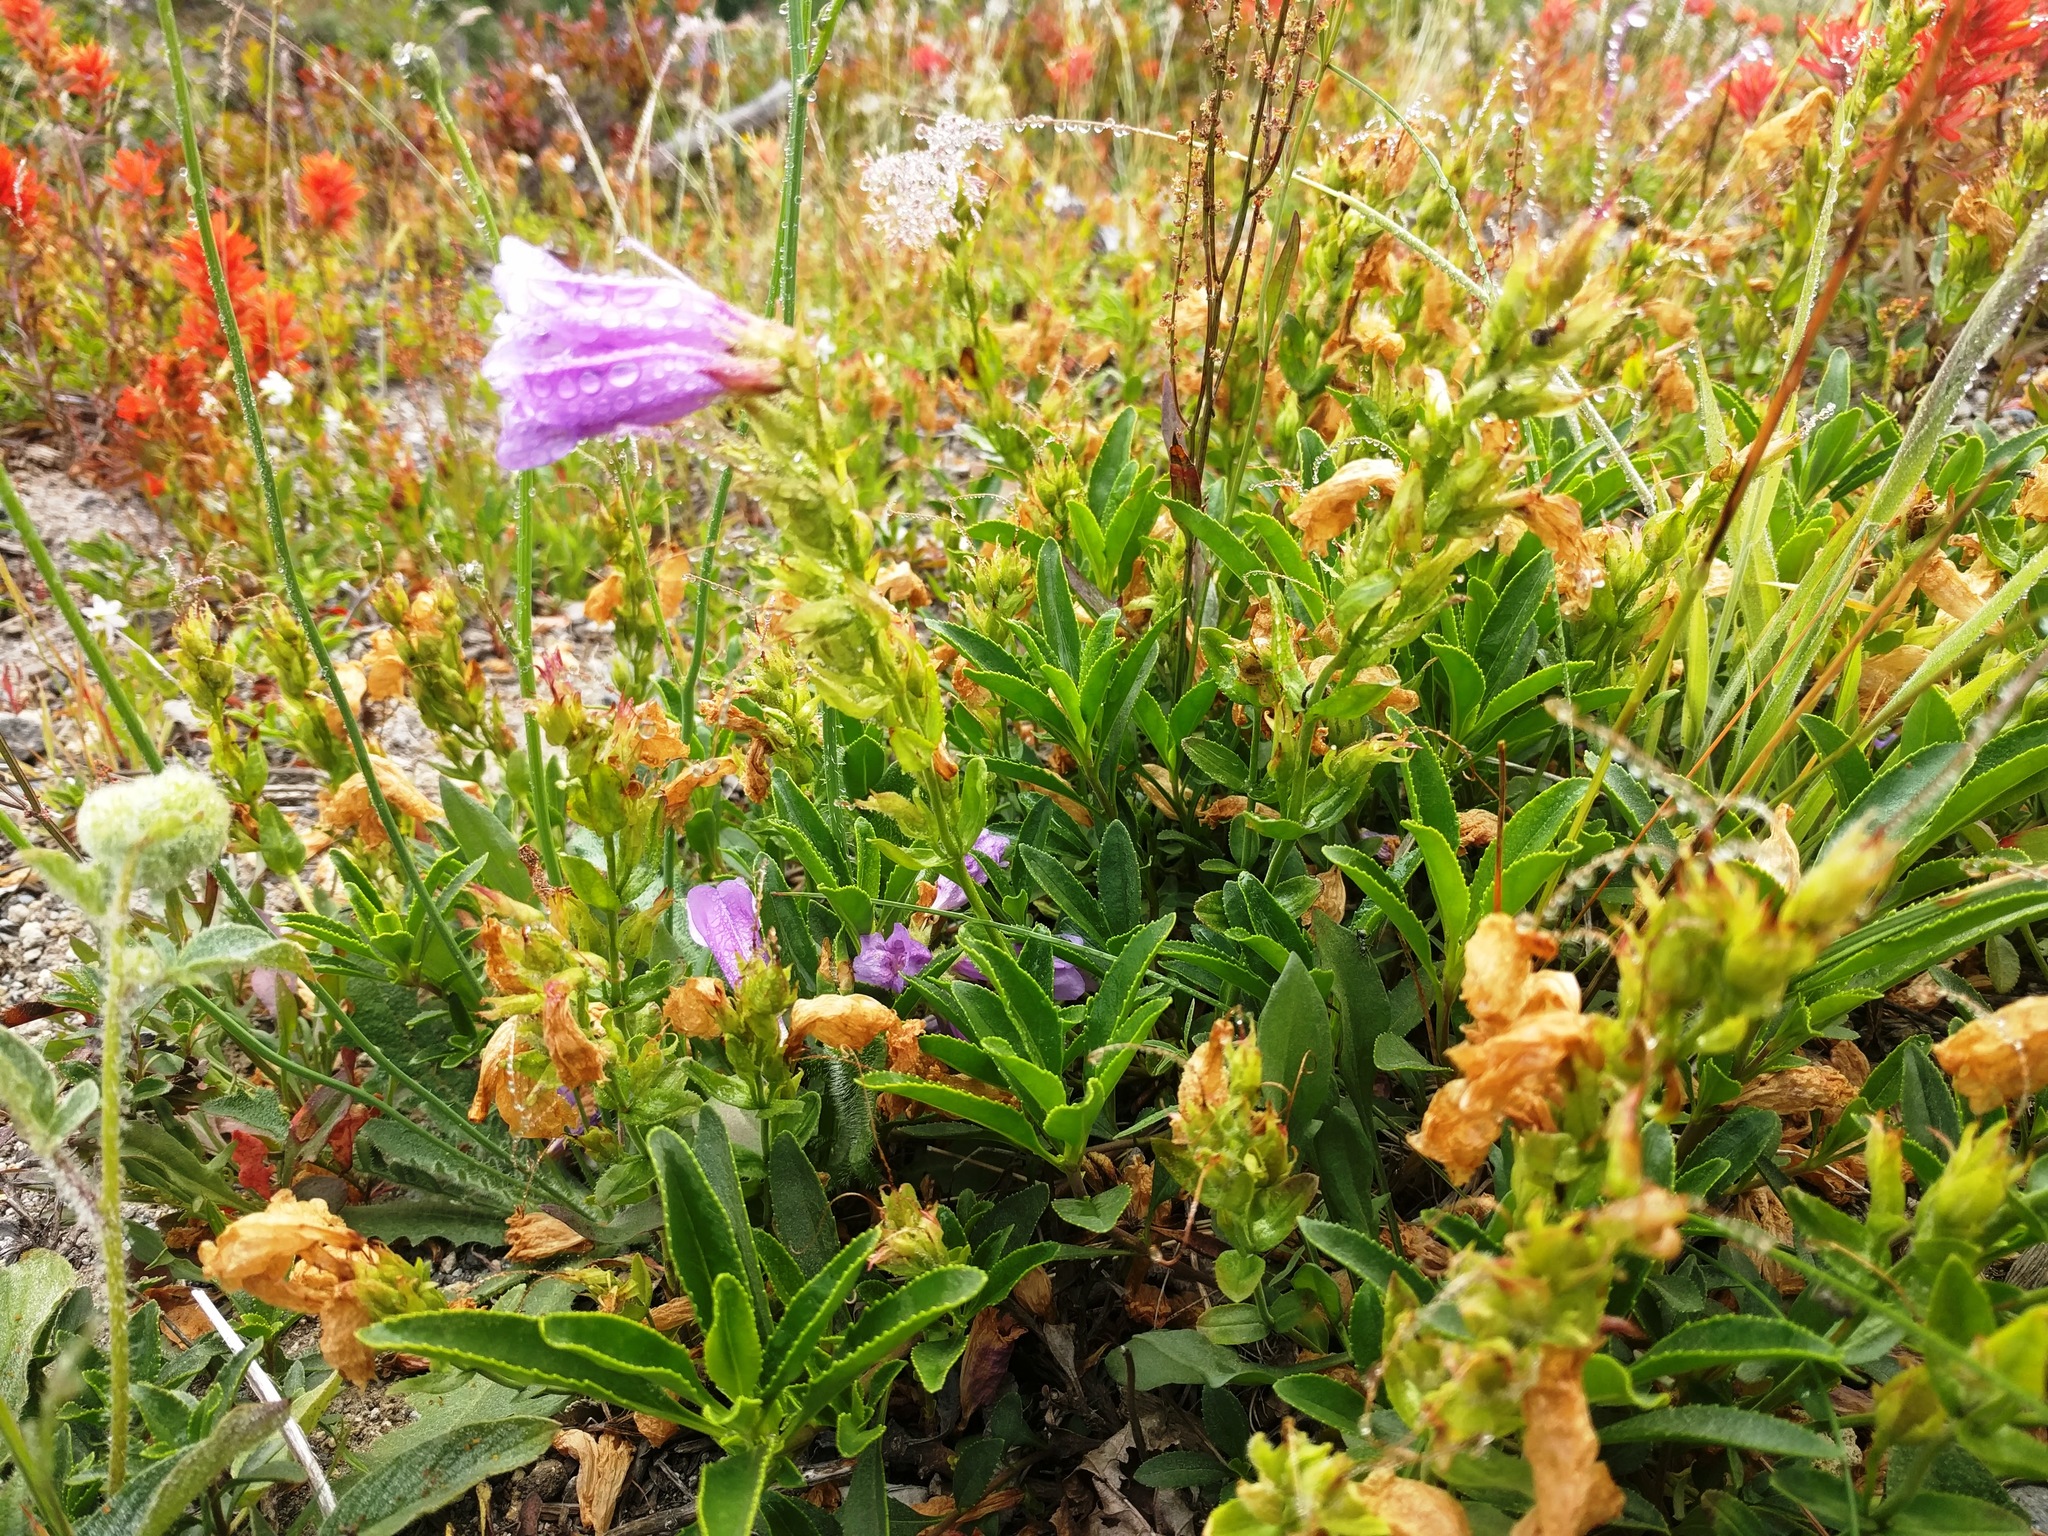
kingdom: Plantae
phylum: Tracheophyta
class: Magnoliopsida
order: Lamiales
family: Plantaginaceae
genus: Penstemon
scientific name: Penstemon cardwellii
